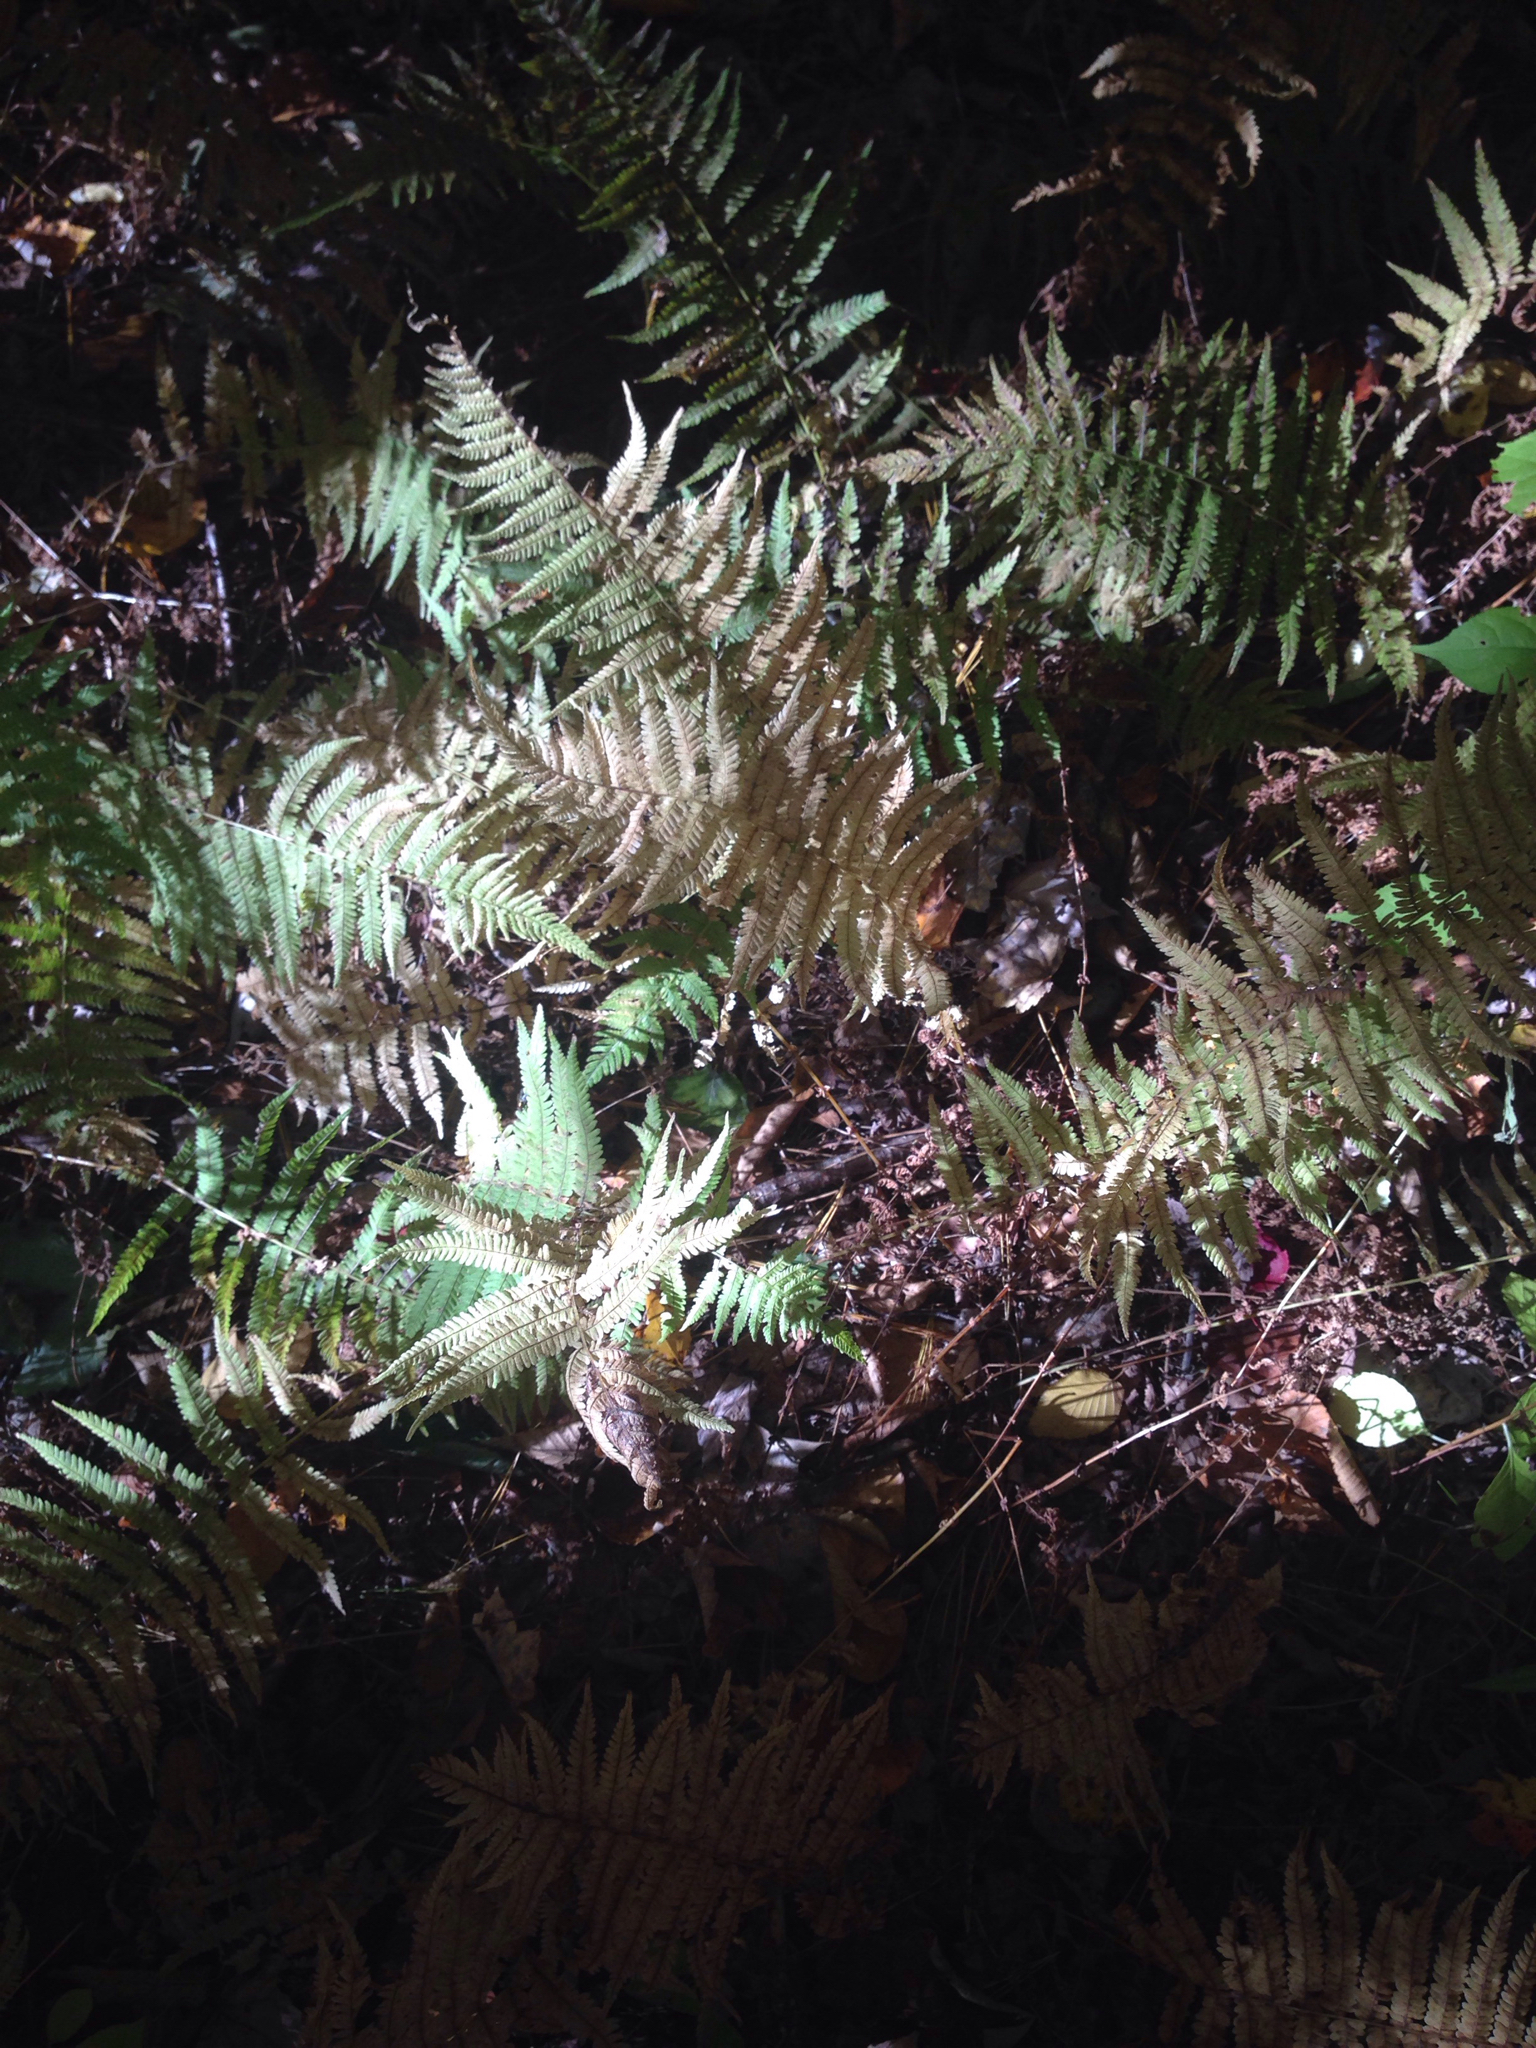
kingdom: Plantae
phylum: Tracheophyta
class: Polypodiopsida
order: Polypodiales
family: Thelypteridaceae
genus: Amauropelta
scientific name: Amauropelta noveboracensis
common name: New york fern
